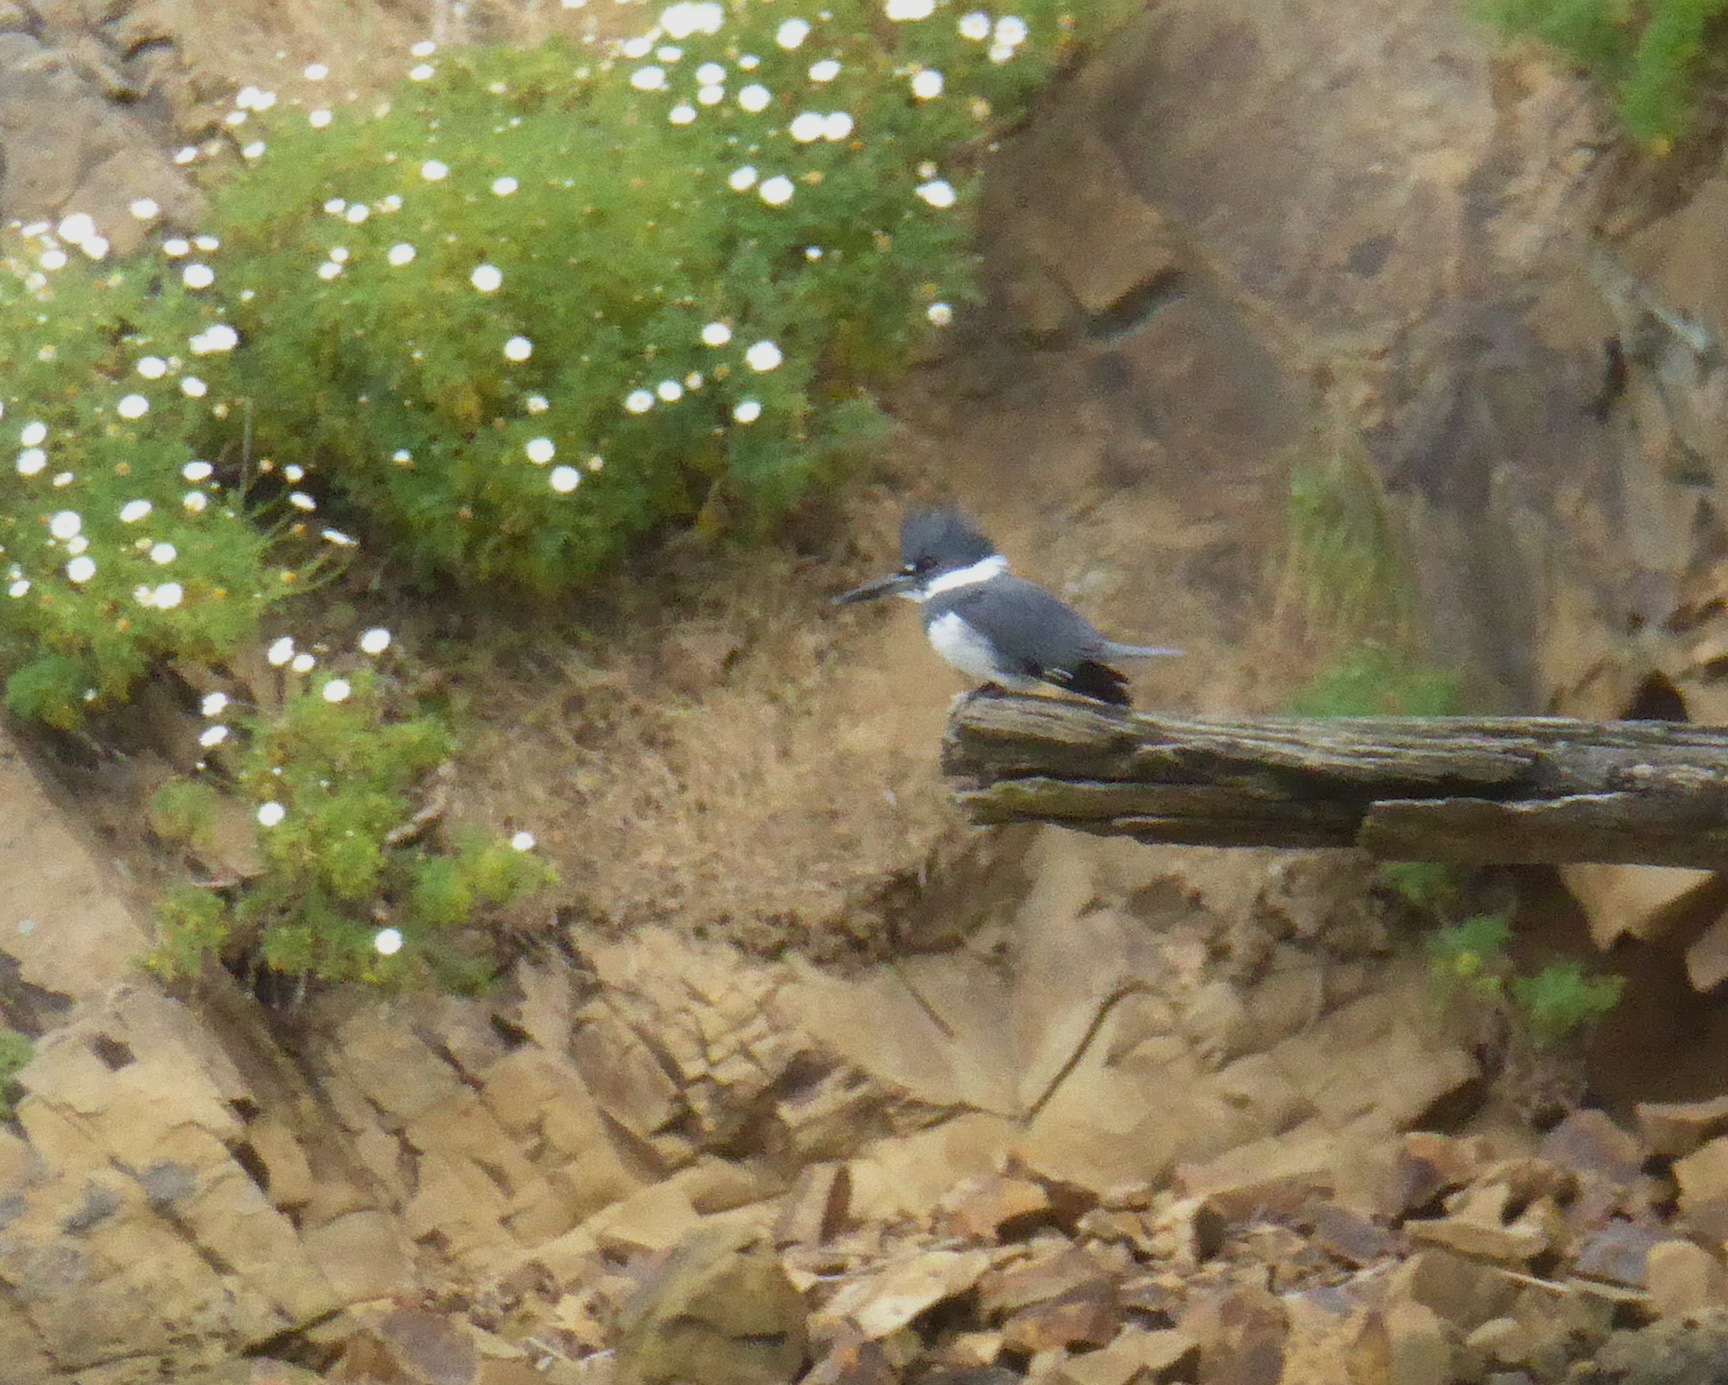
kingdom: Animalia
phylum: Chordata
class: Aves
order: Coraciiformes
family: Alcedinidae
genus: Megaceryle
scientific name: Megaceryle alcyon
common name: Belted kingfisher
